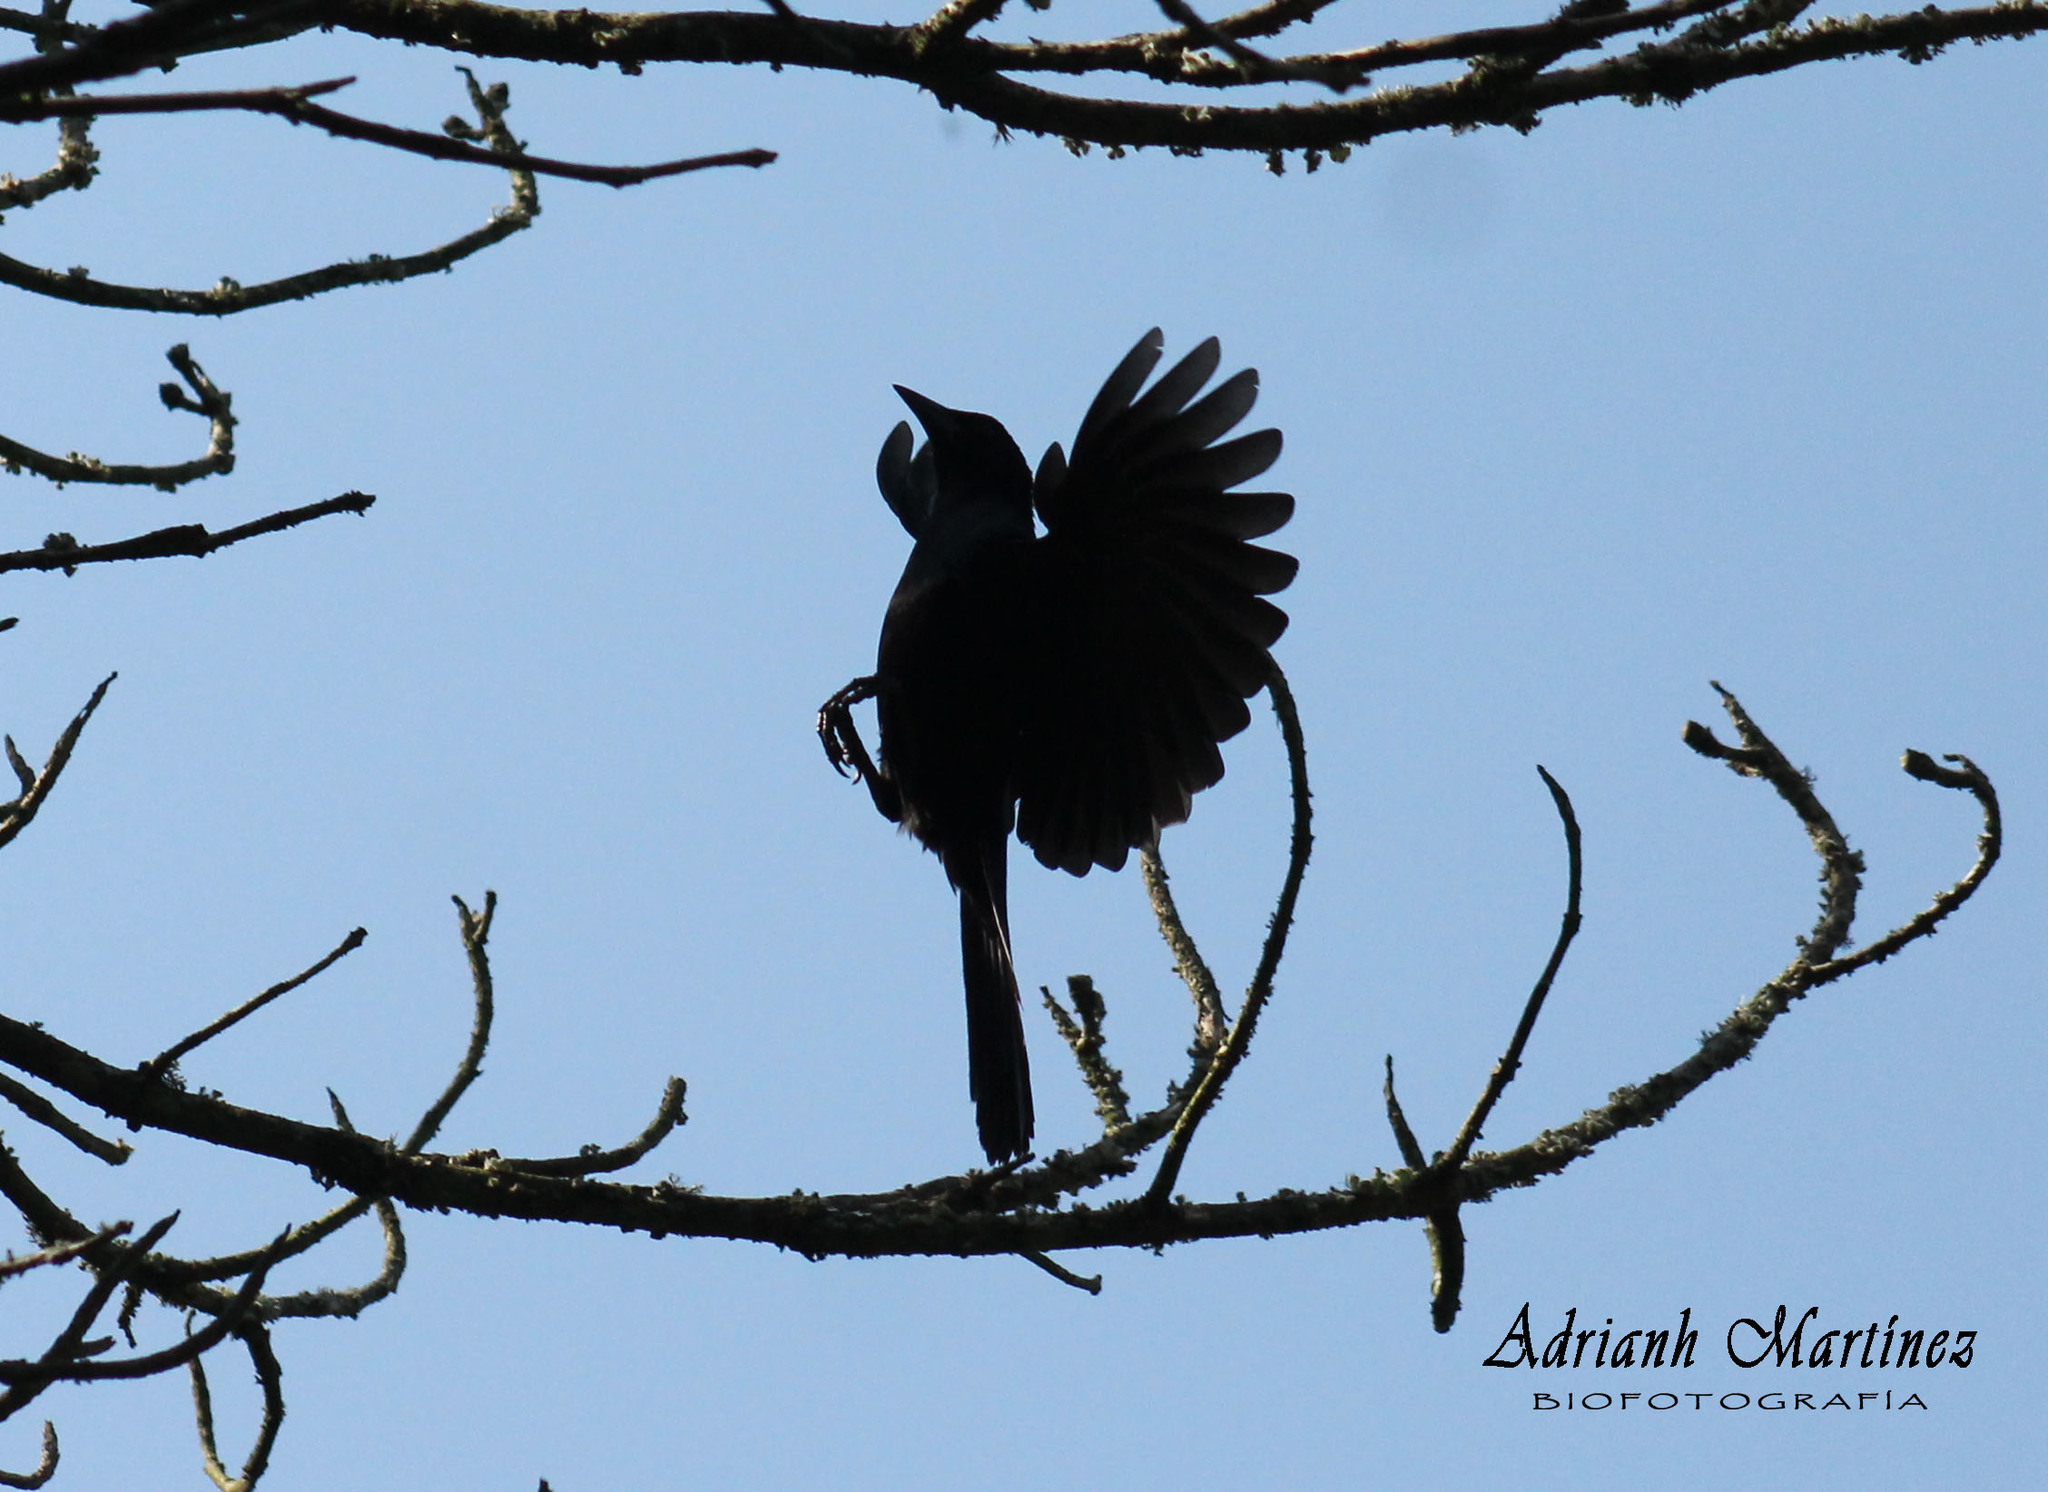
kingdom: Animalia
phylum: Chordata
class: Aves
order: Passeriformes
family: Icteridae
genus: Dives
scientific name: Dives dives
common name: Melodious blackbird
